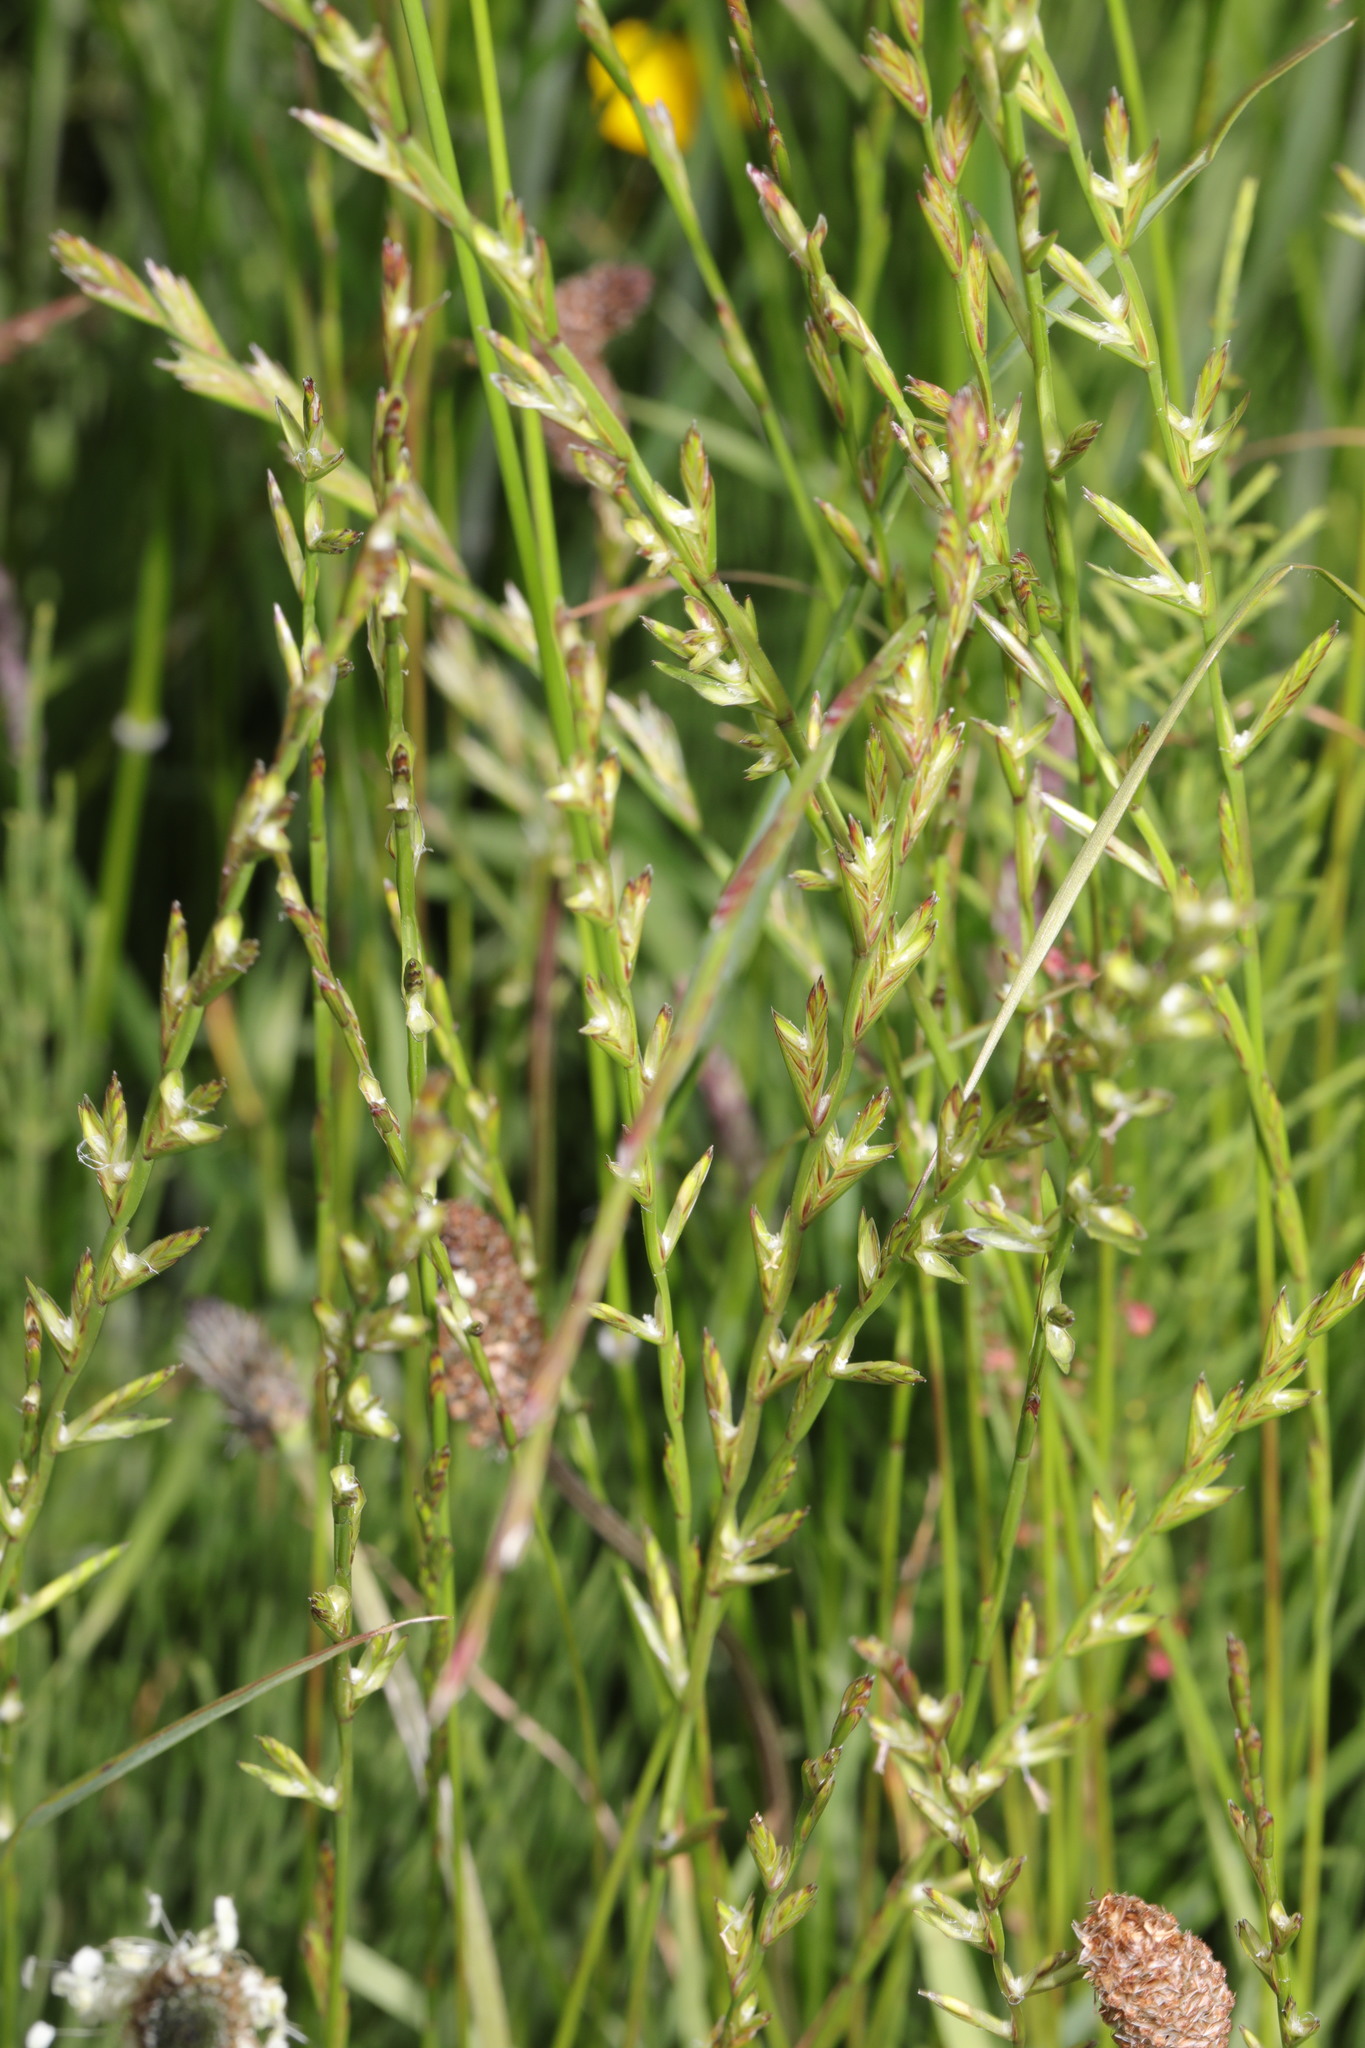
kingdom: Plantae
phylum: Tracheophyta
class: Liliopsida
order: Poales
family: Poaceae
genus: Lolium
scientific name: Lolium perenne
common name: Perennial ryegrass
